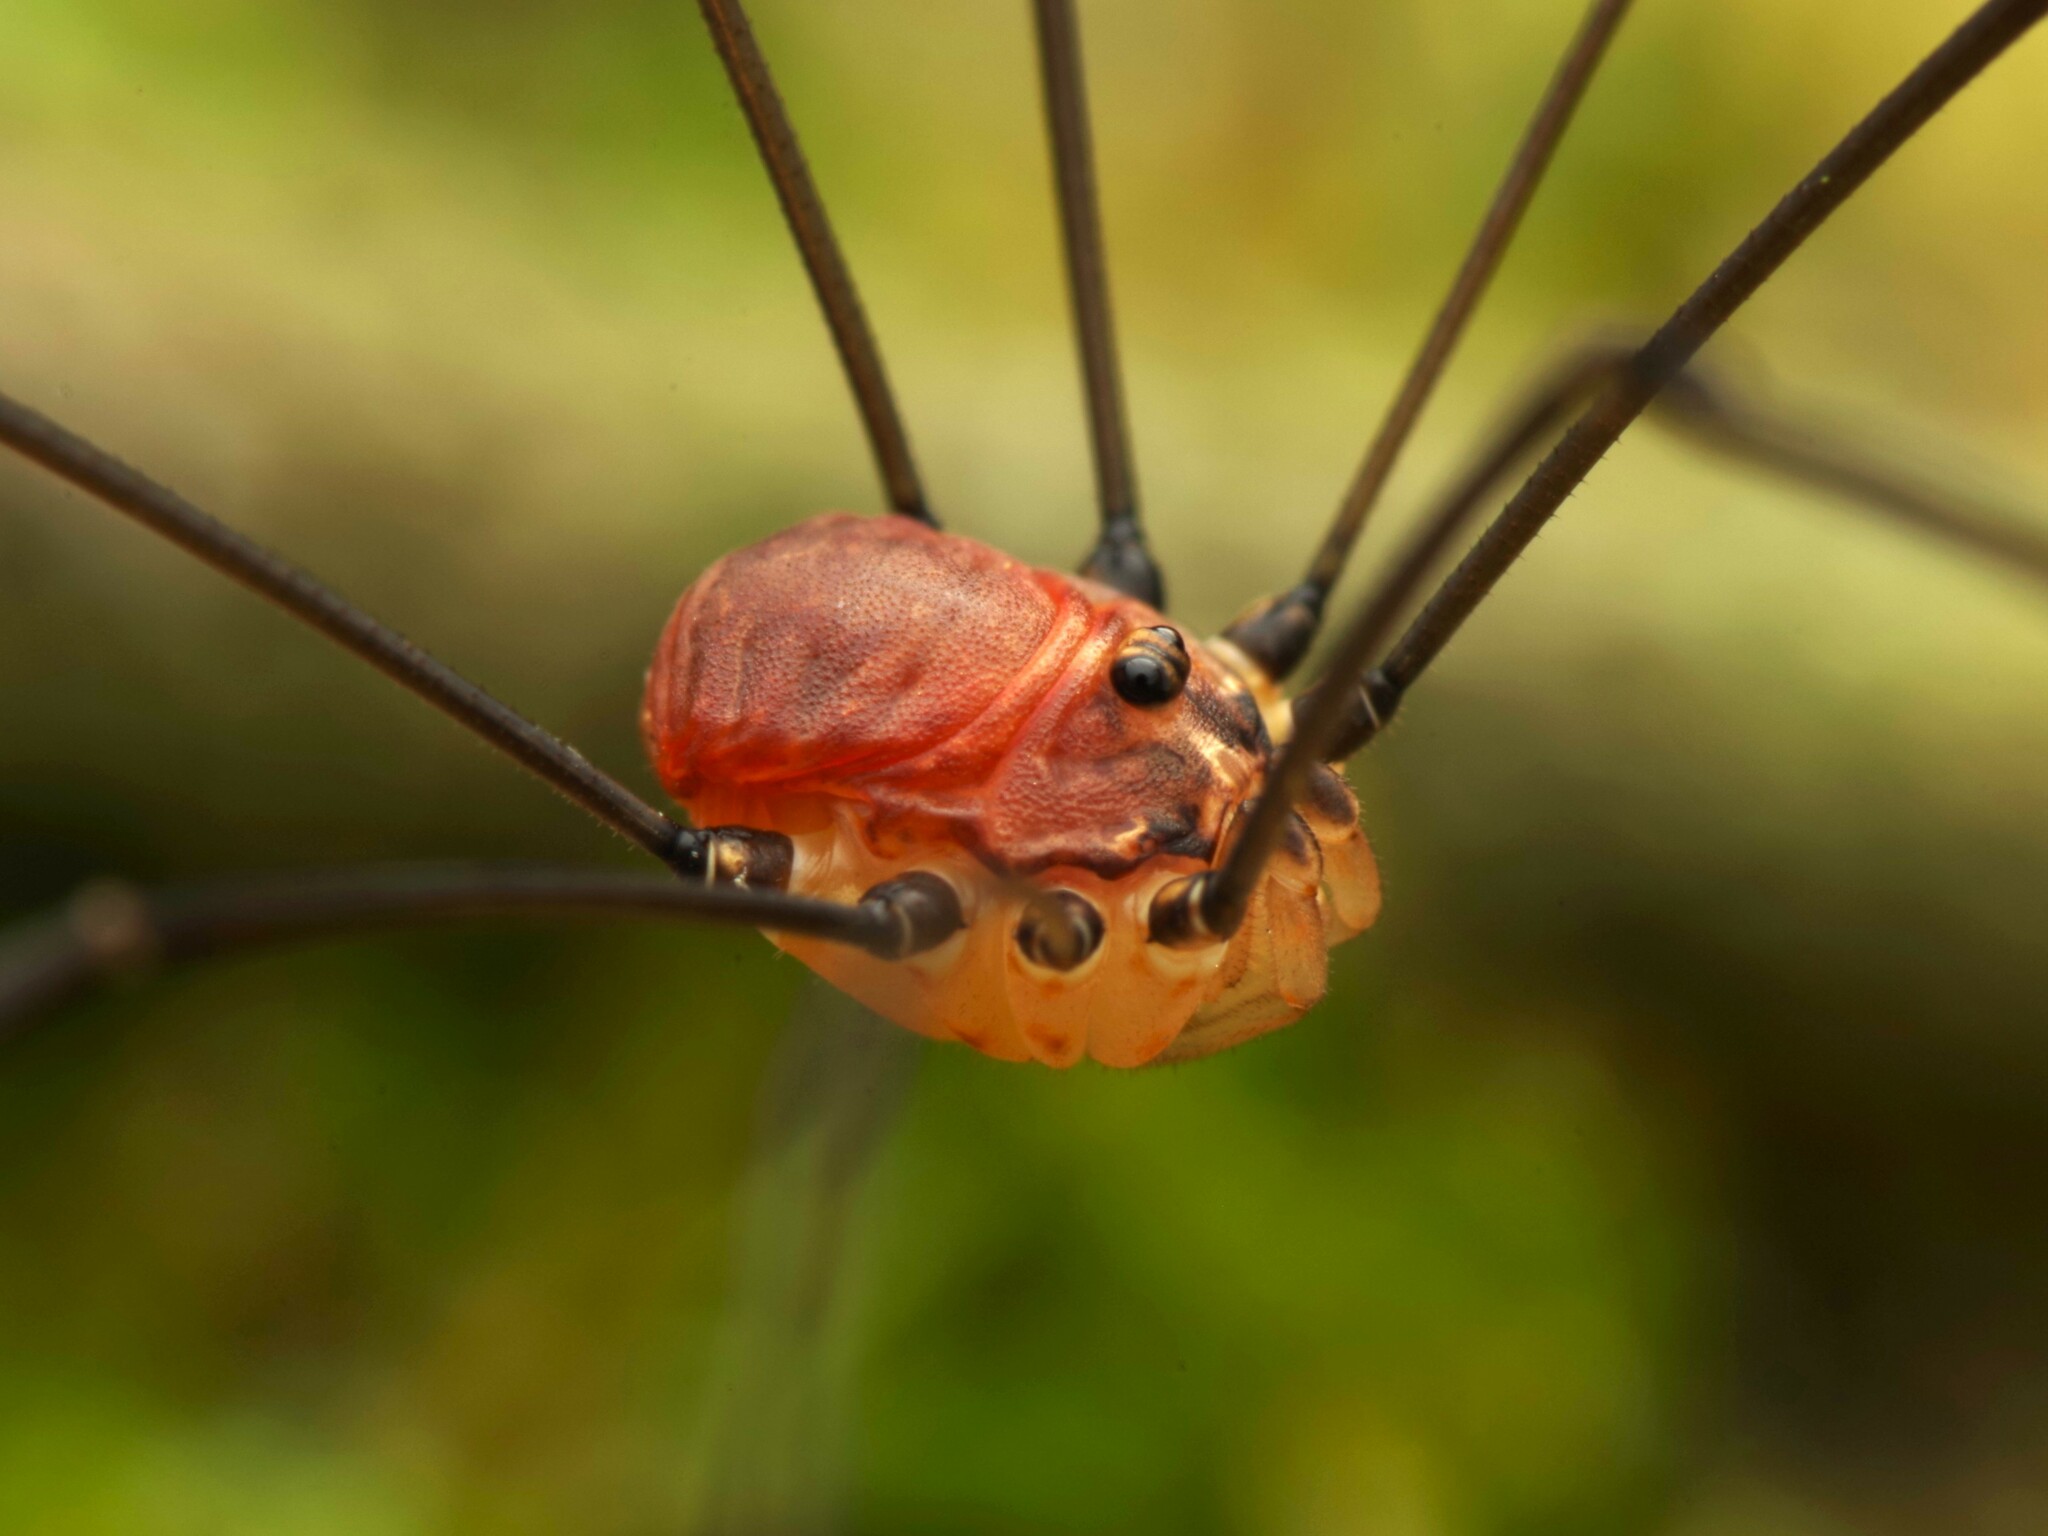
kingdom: Animalia
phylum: Arthropoda
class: Arachnida
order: Opiliones
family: Sclerosomatidae
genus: Leiobunum
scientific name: Leiobunum blackwalli
